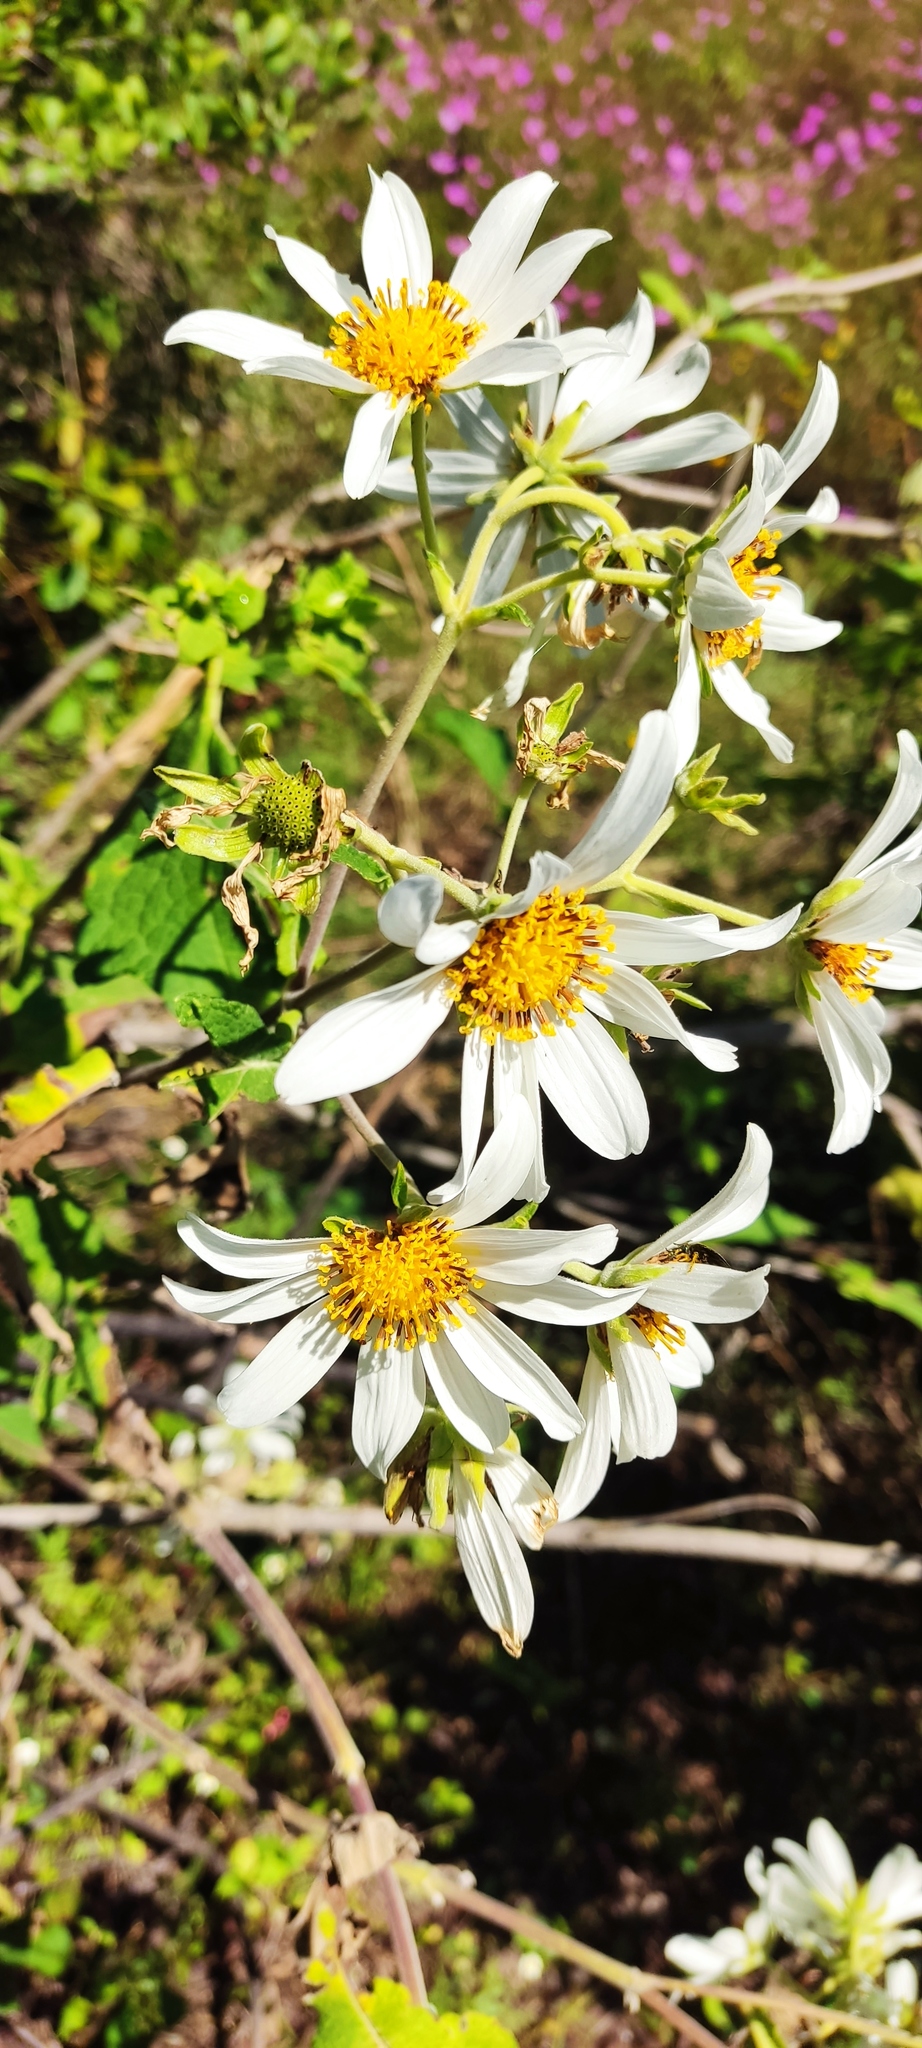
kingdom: Plantae
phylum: Tracheophyta
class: Magnoliopsida
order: Asterales
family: Asteraceae
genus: Montanoa
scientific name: Montanoa grandiflora
